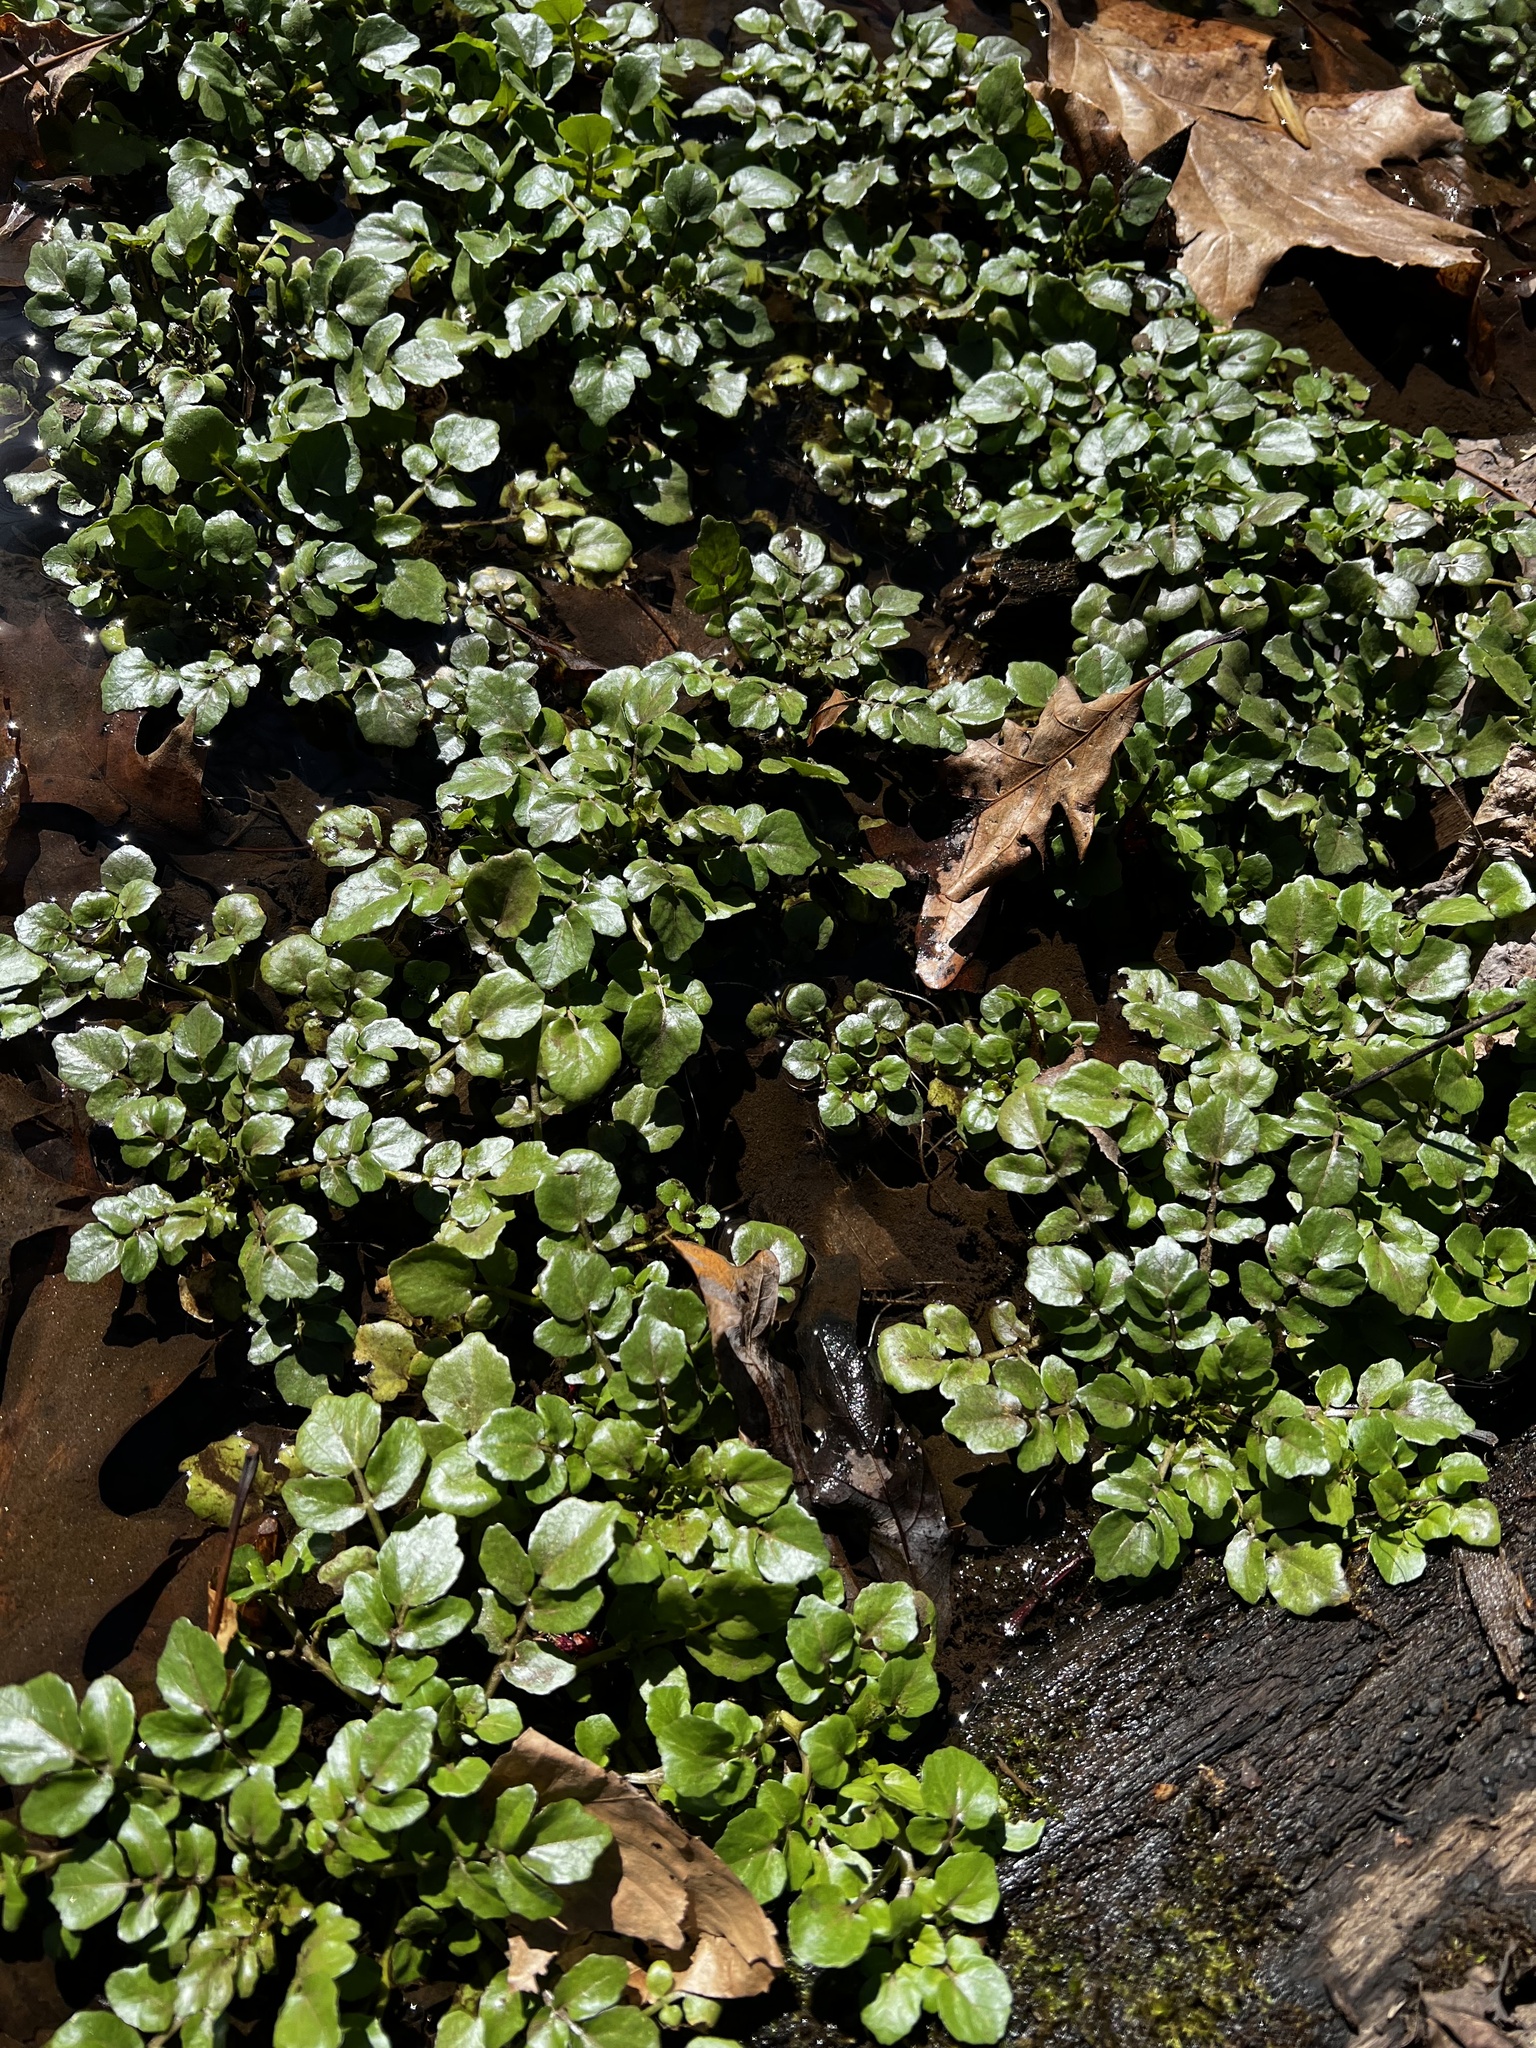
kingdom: Plantae
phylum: Tracheophyta
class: Magnoliopsida
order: Brassicales
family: Brassicaceae
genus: Nasturtium
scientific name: Nasturtium officinale
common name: Watercress
